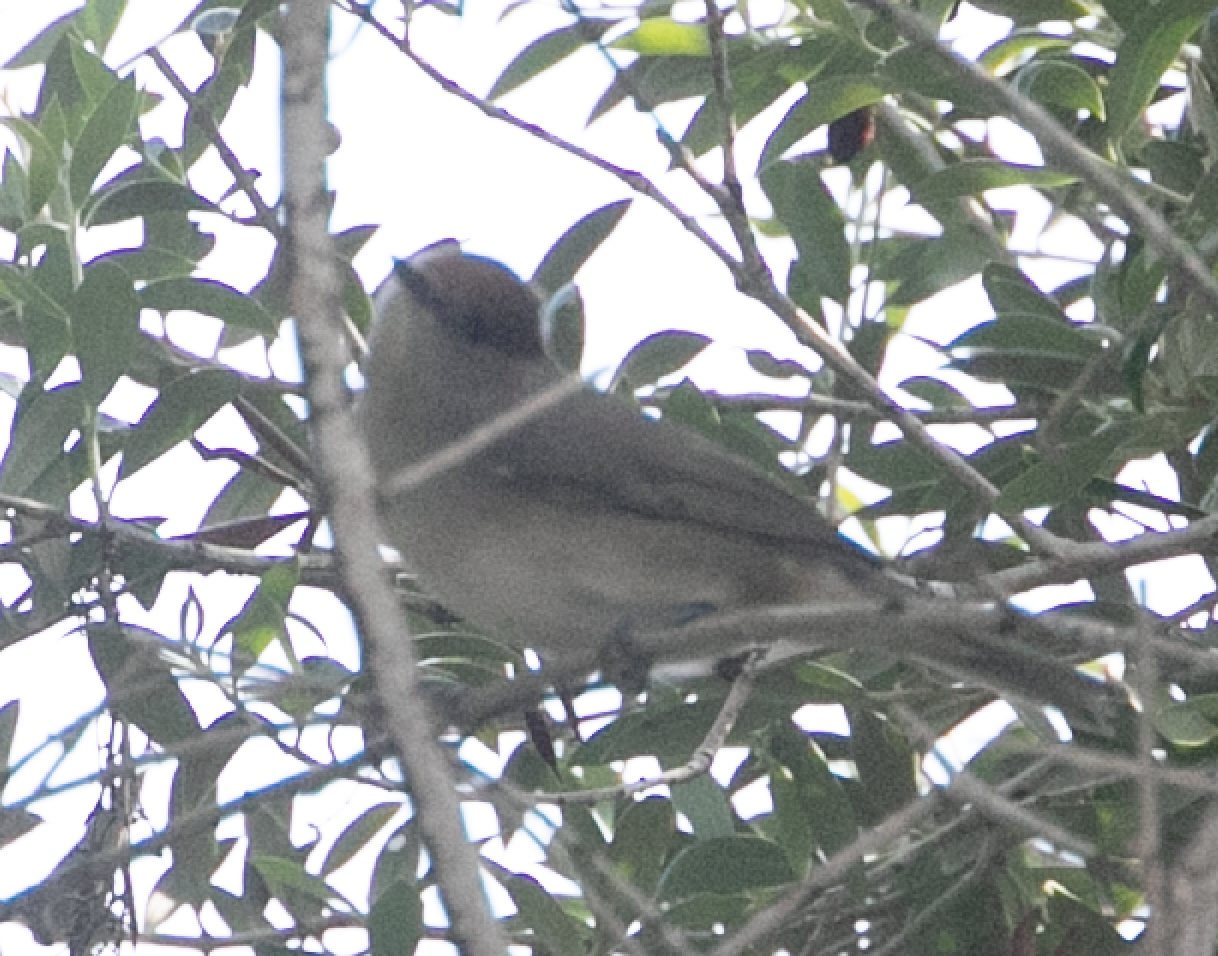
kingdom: Animalia
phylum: Chordata
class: Aves
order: Passeriformes
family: Sylviidae
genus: Sylvia
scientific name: Sylvia atricapilla
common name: Eurasian blackcap
